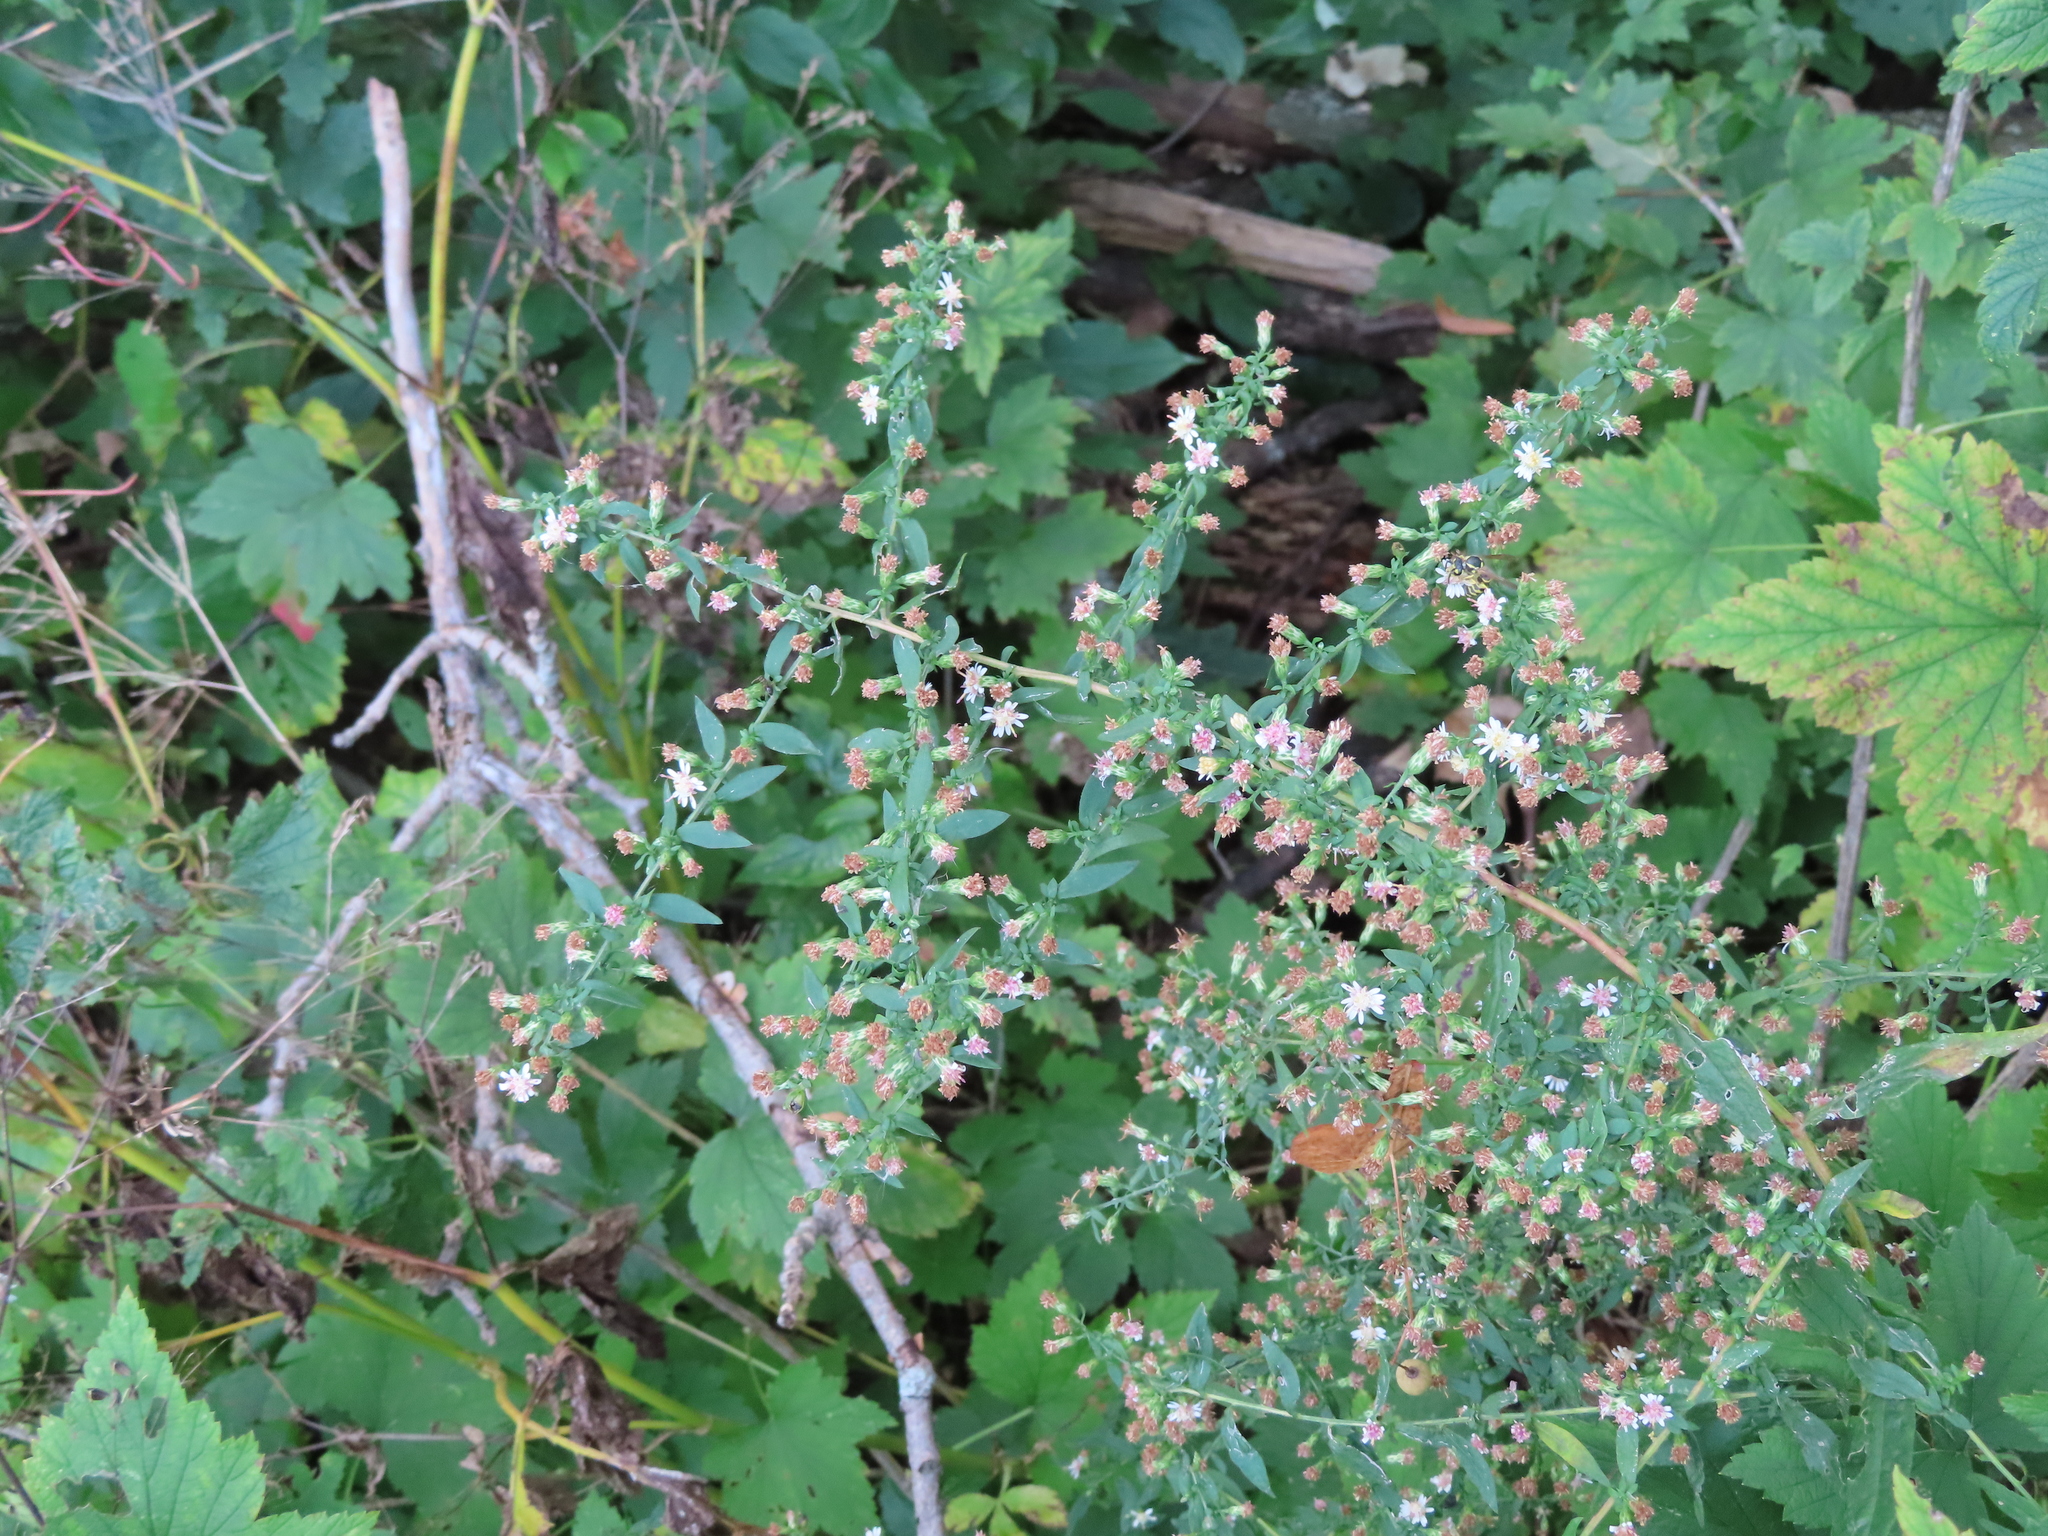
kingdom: Plantae
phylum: Tracheophyta
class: Magnoliopsida
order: Asterales
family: Asteraceae
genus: Symphyotrichum
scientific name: Symphyotrichum lateriflorum
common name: Calico aster
